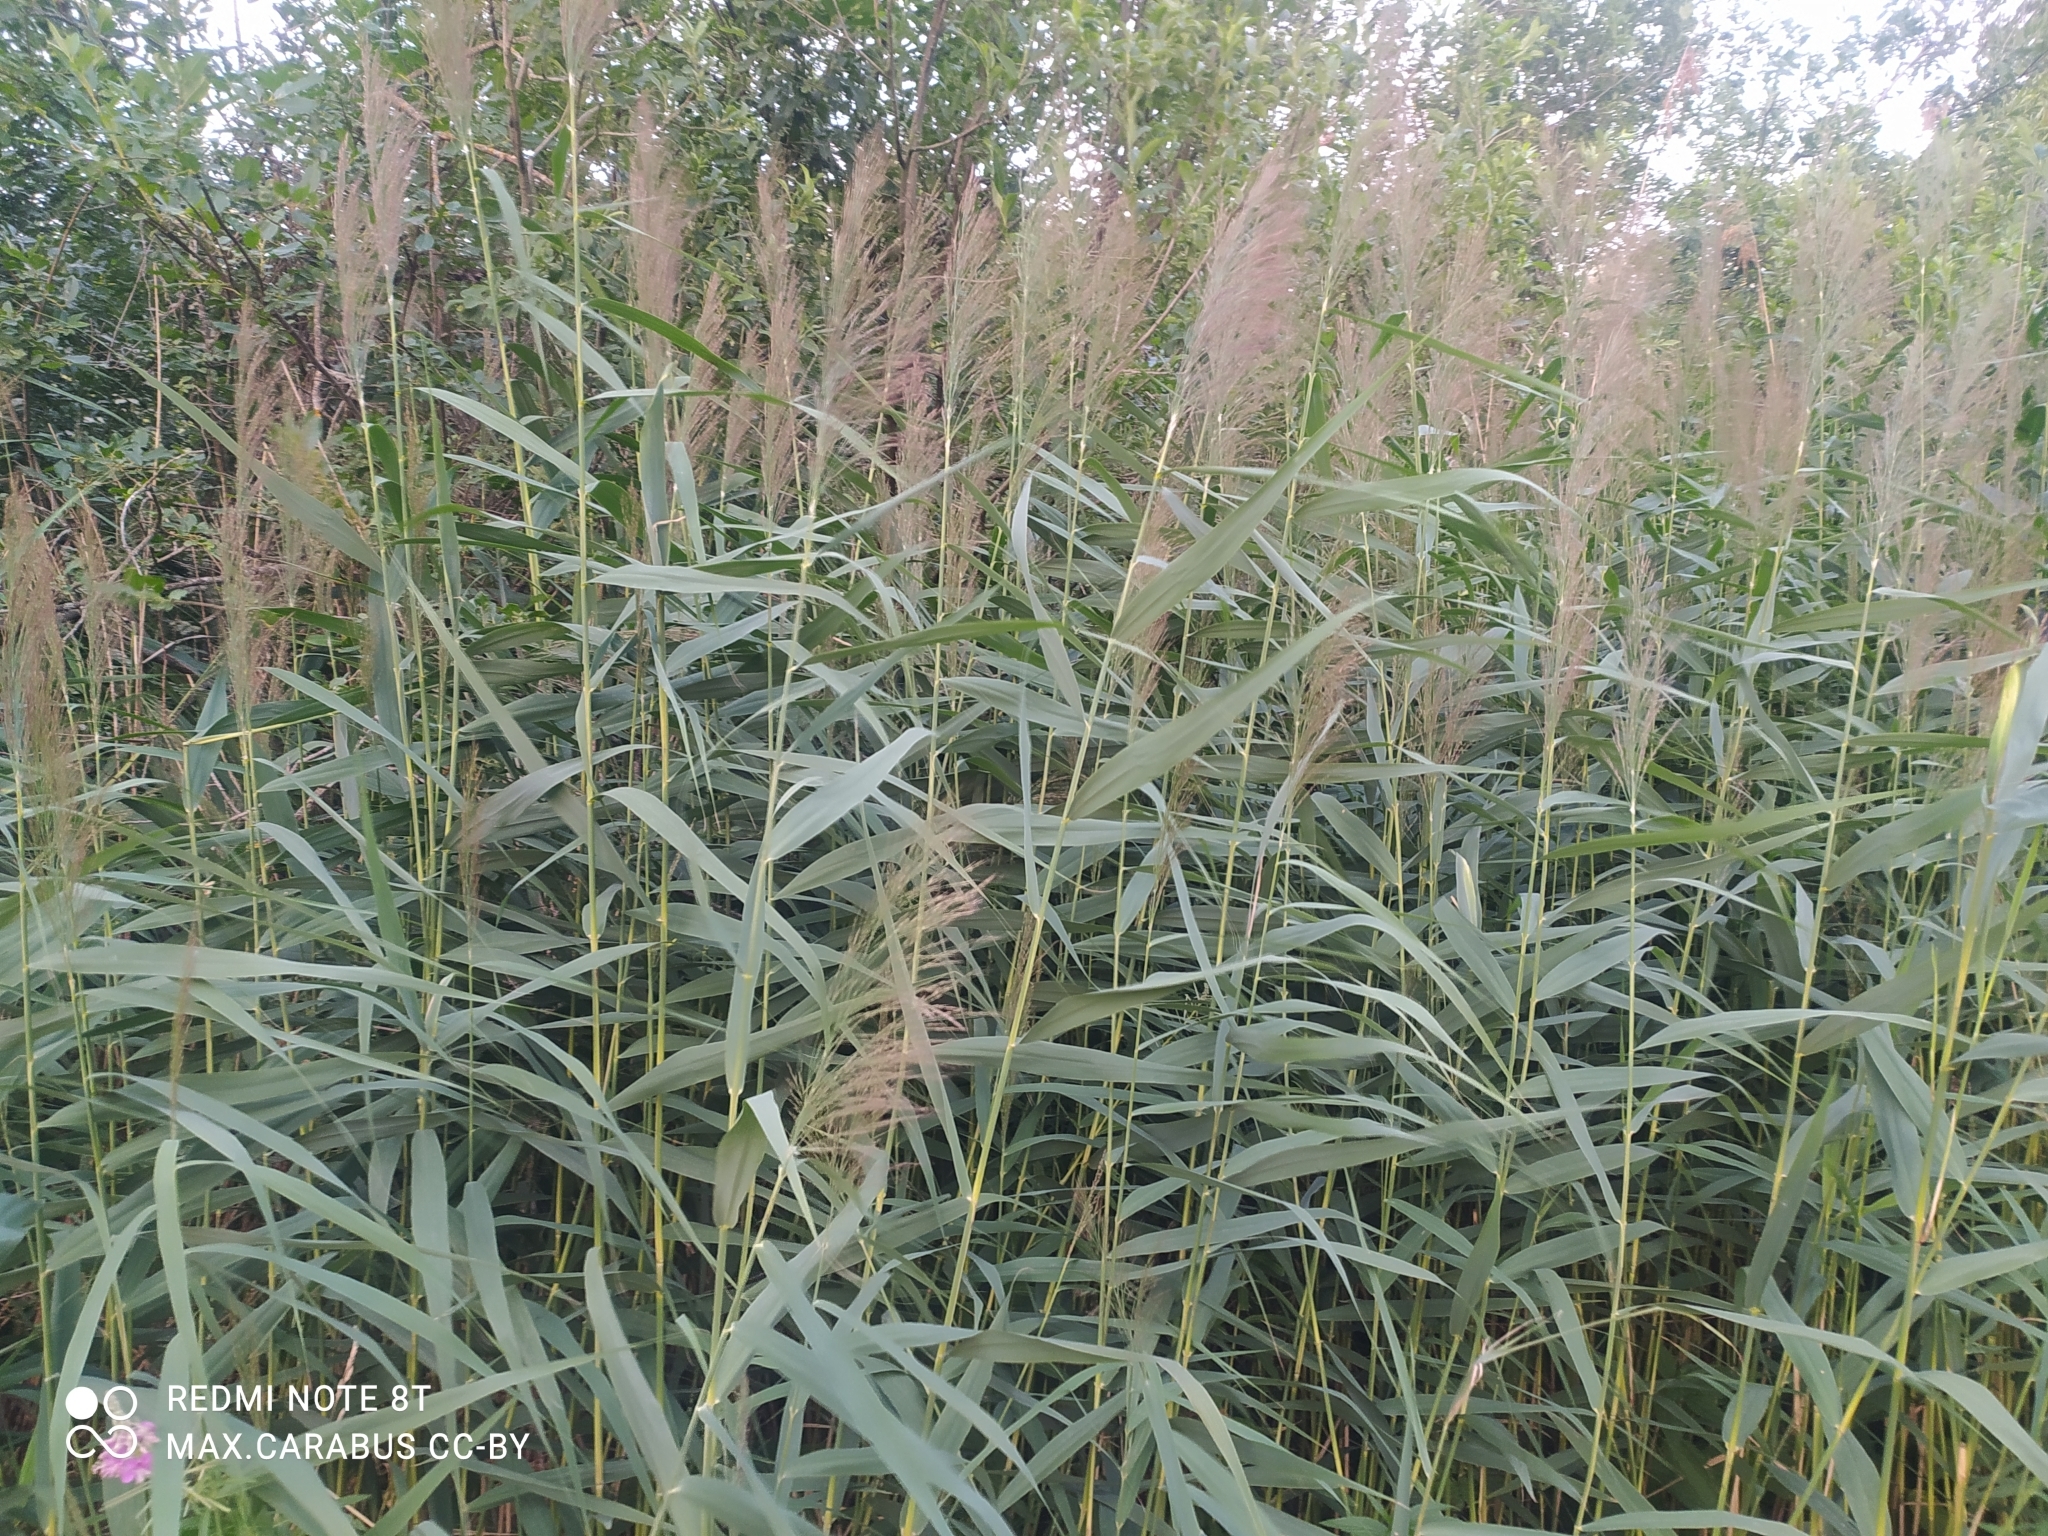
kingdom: Plantae
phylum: Tracheophyta
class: Liliopsida
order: Poales
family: Poaceae
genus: Phragmites
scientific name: Phragmites australis
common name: Common reed
